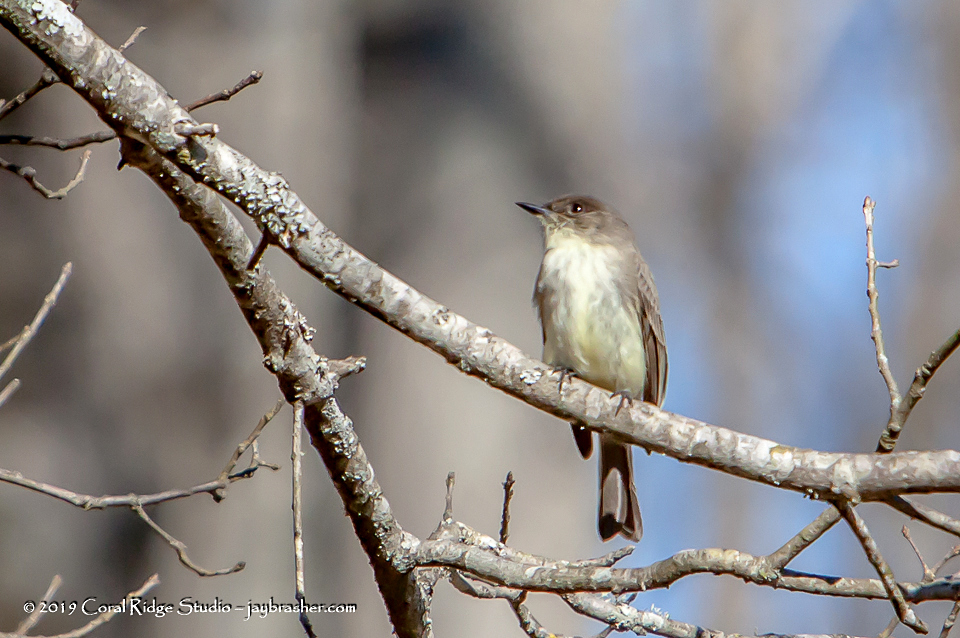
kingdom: Animalia
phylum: Chordata
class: Aves
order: Passeriformes
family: Tyrannidae
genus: Sayornis
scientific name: Sayornis phoebe
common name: Eastern phoebe
